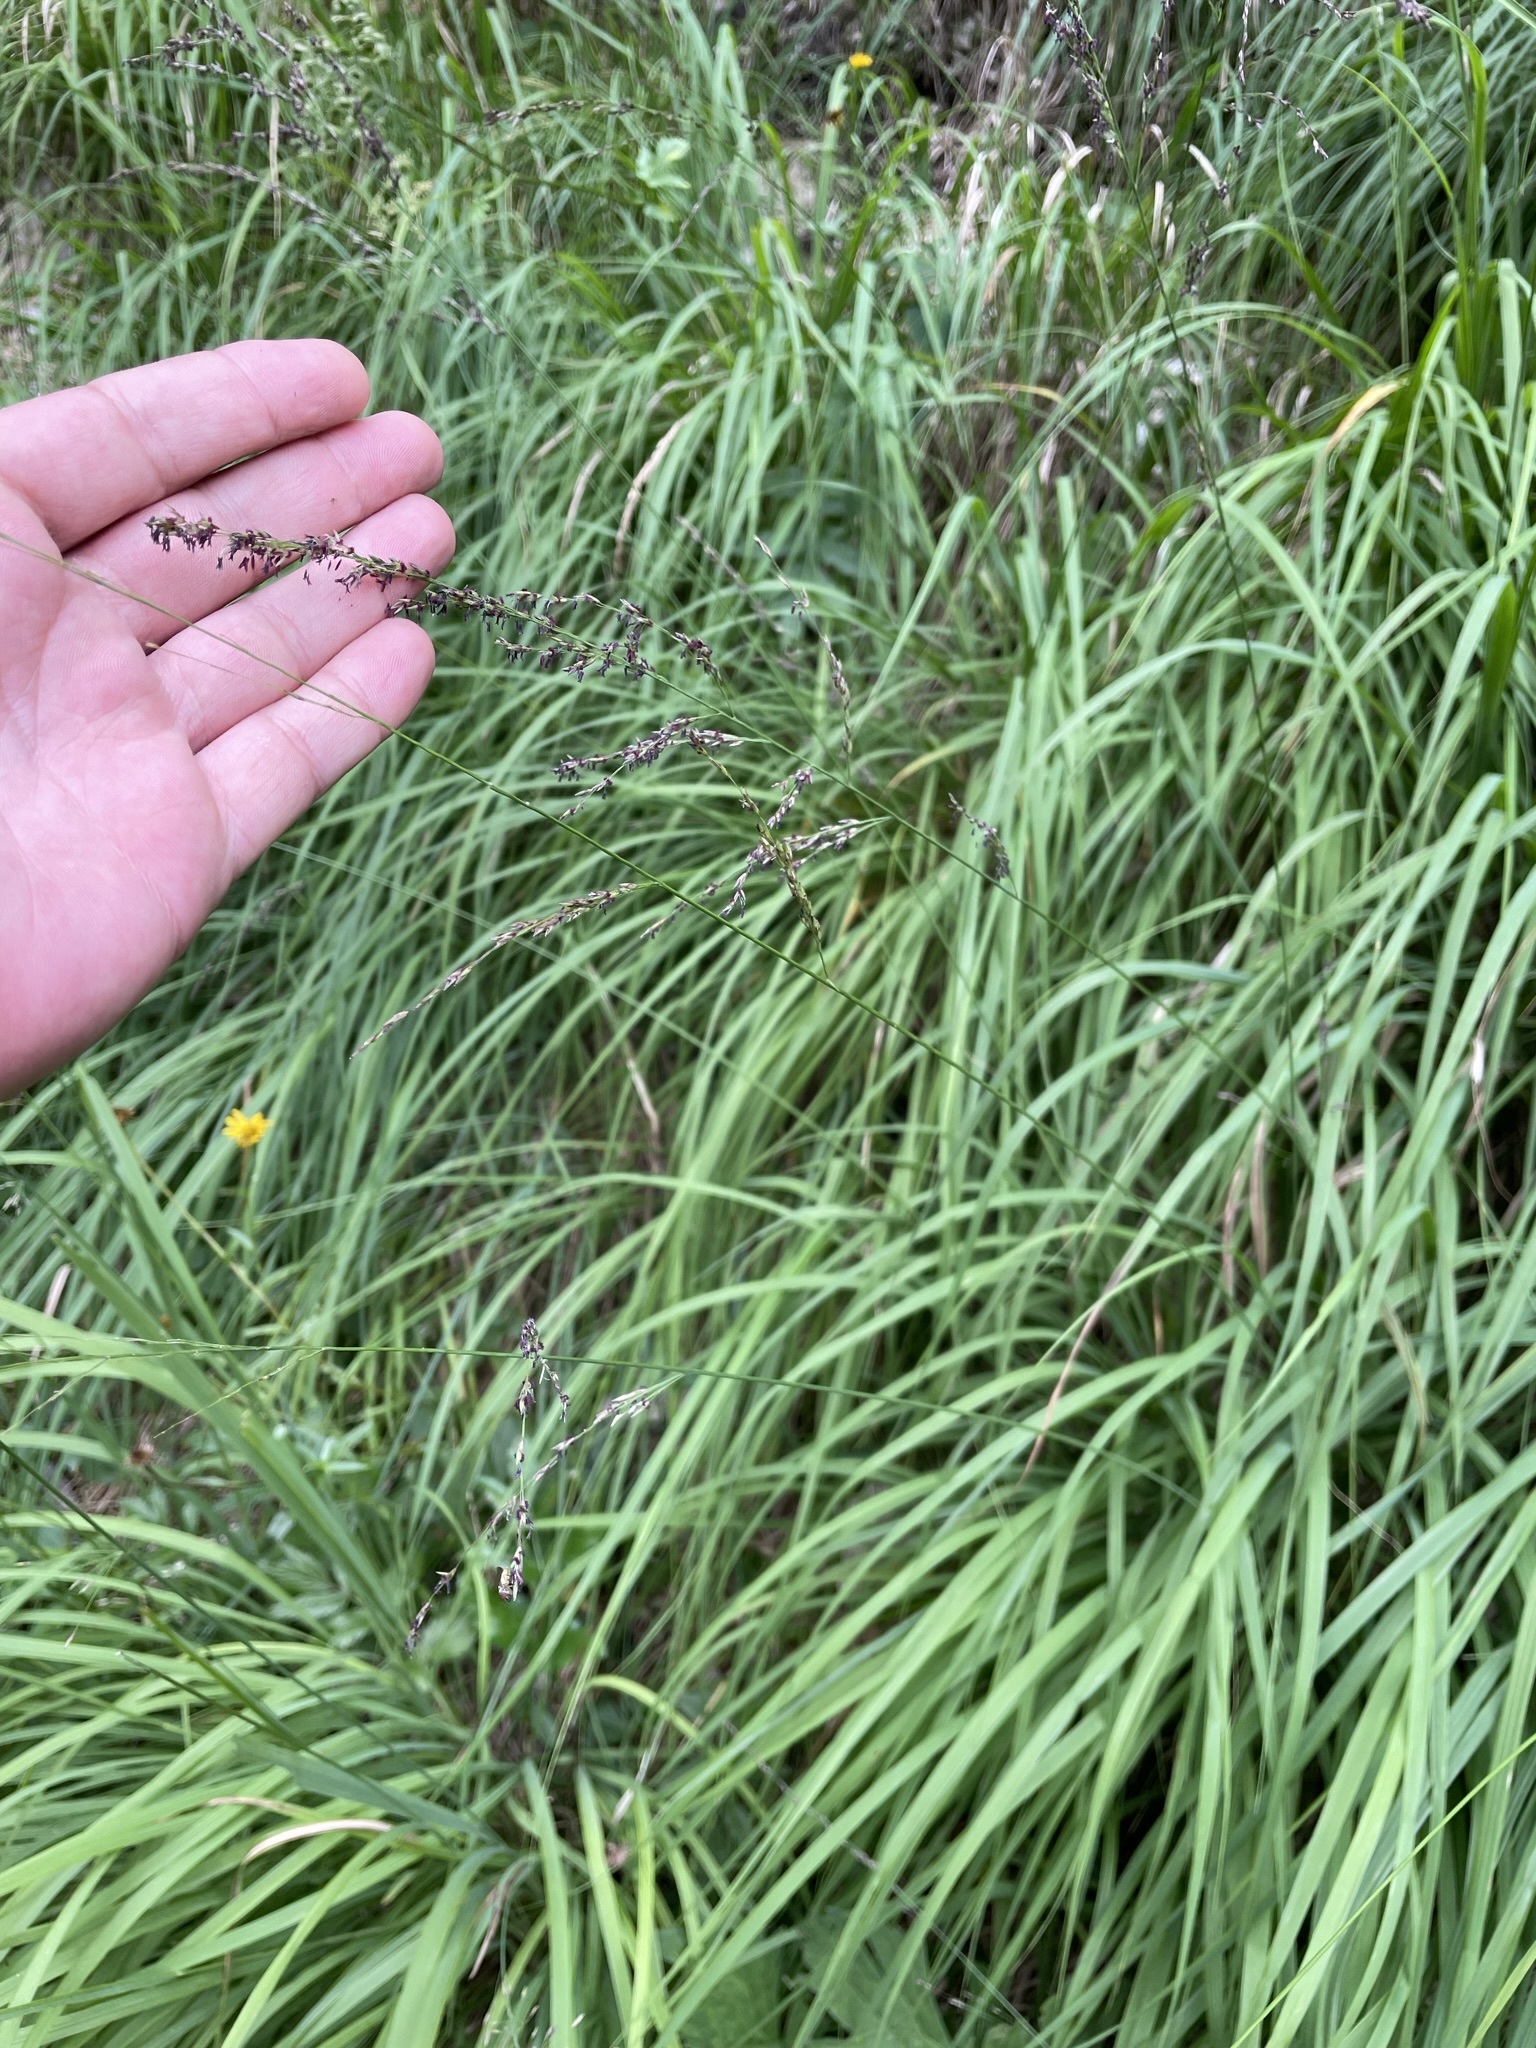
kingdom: Plantae
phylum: Tracheophyta
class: Liliopsida
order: Poales
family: Poaceae
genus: Molinia
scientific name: Molinia caerulea
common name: Purple moor-grass
